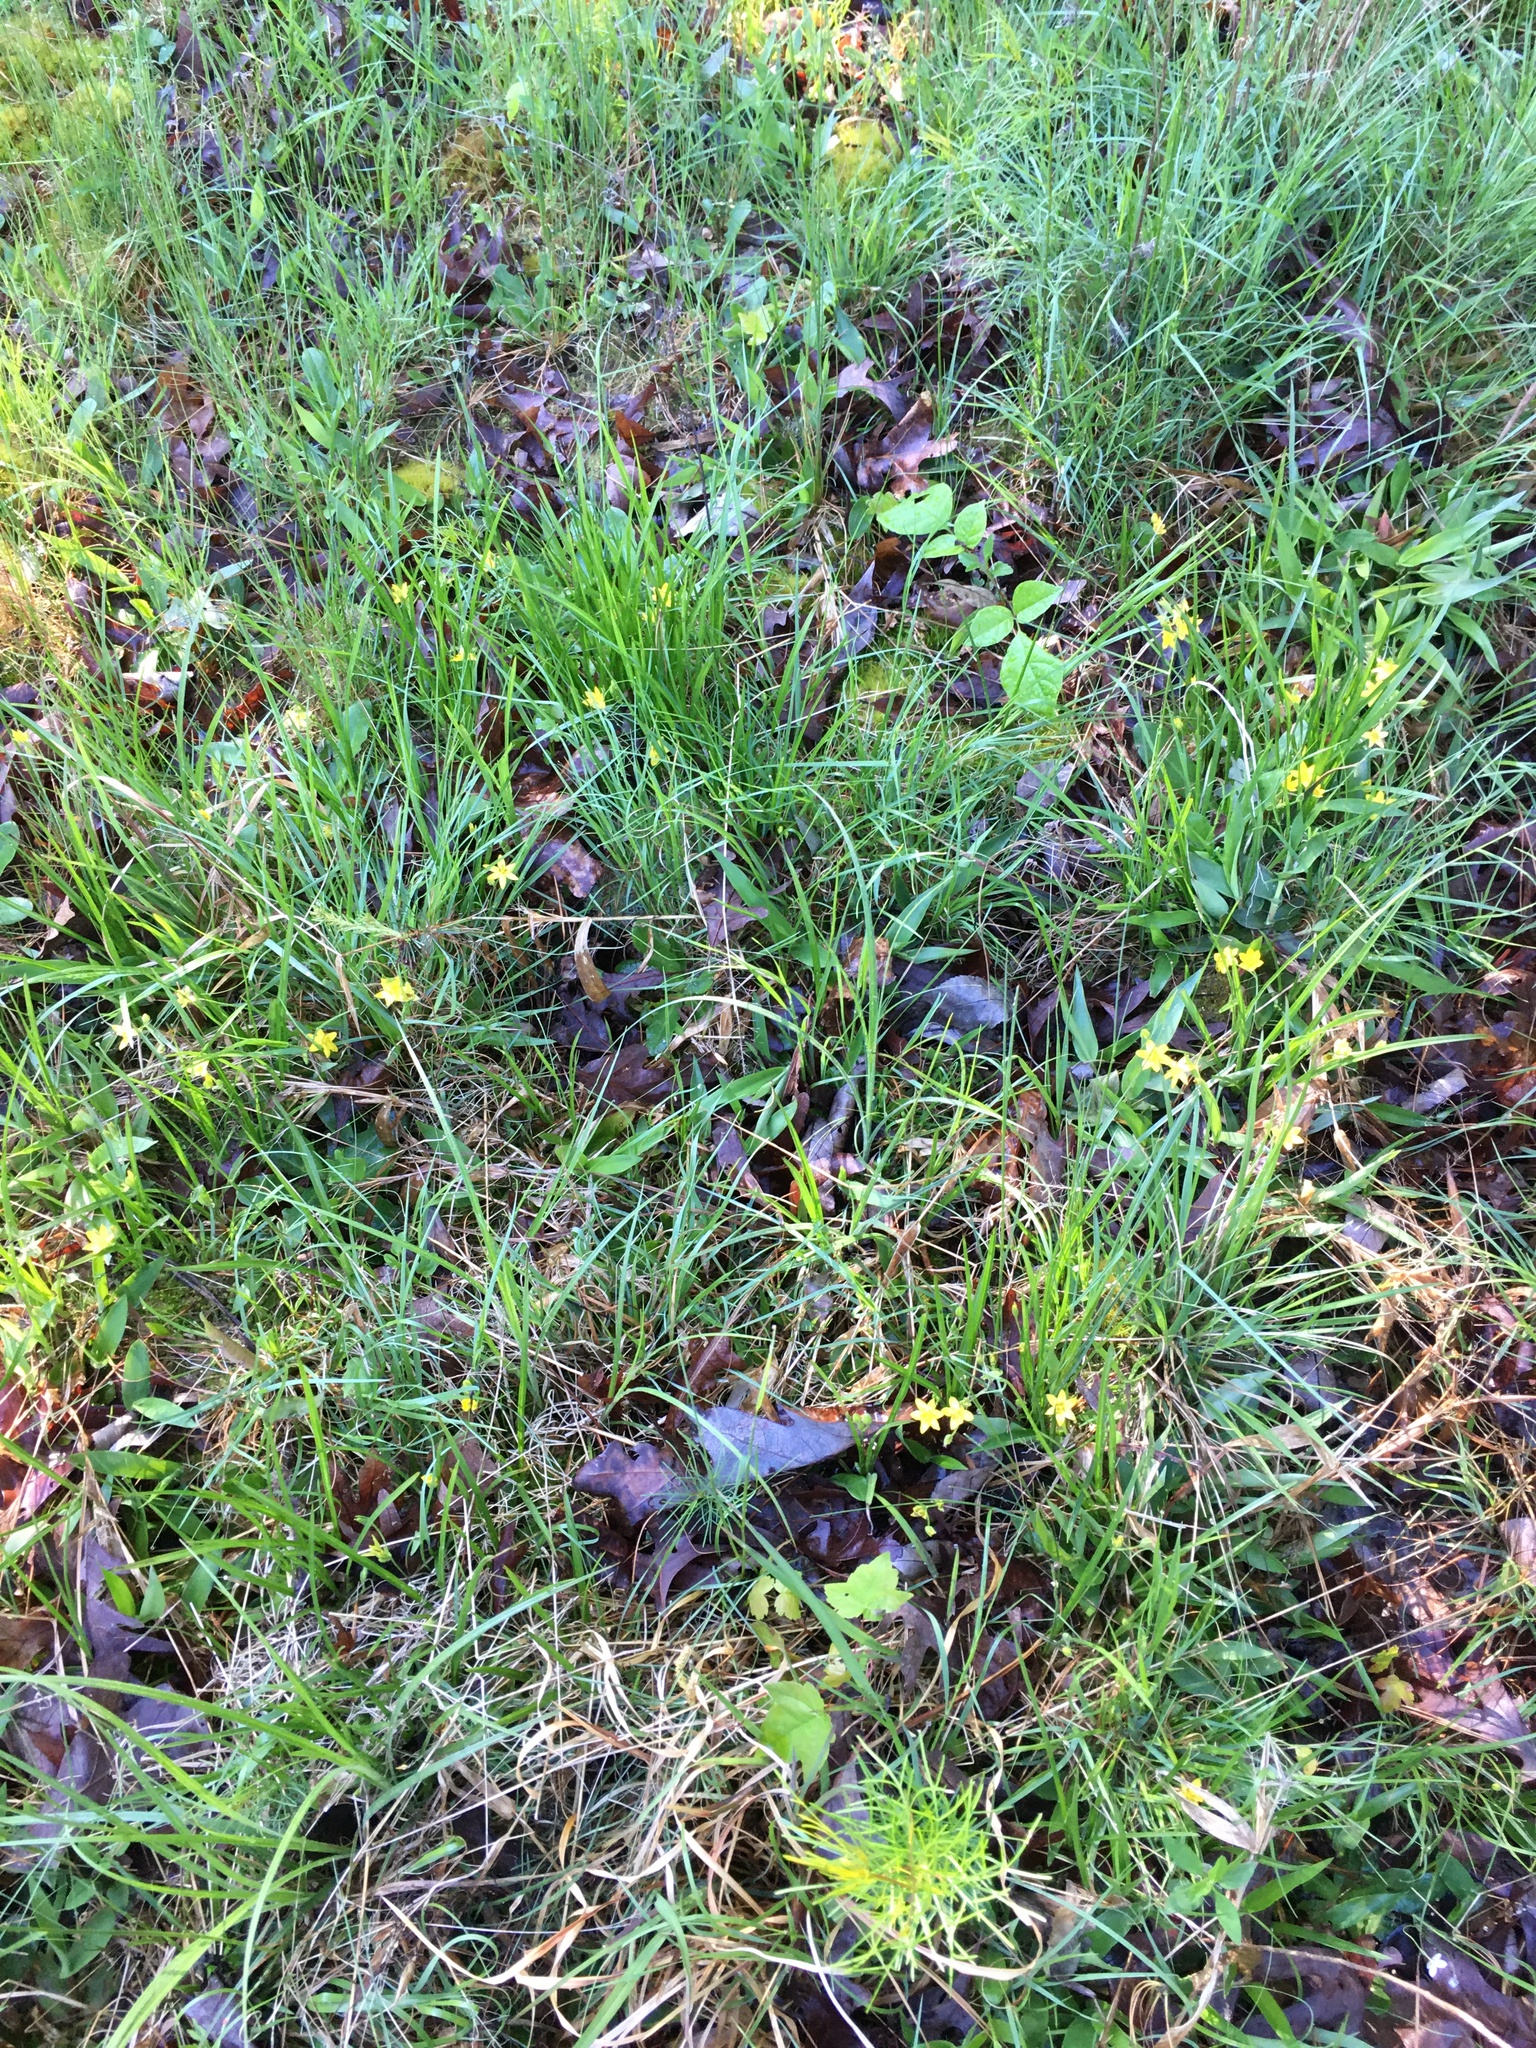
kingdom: Plantae
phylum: Tracheophyta
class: Liliopsida
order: Asparagales
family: Hypoxidaceae
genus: Hypoxis
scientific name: Hypoxis hirsuta
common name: Common goldstar
